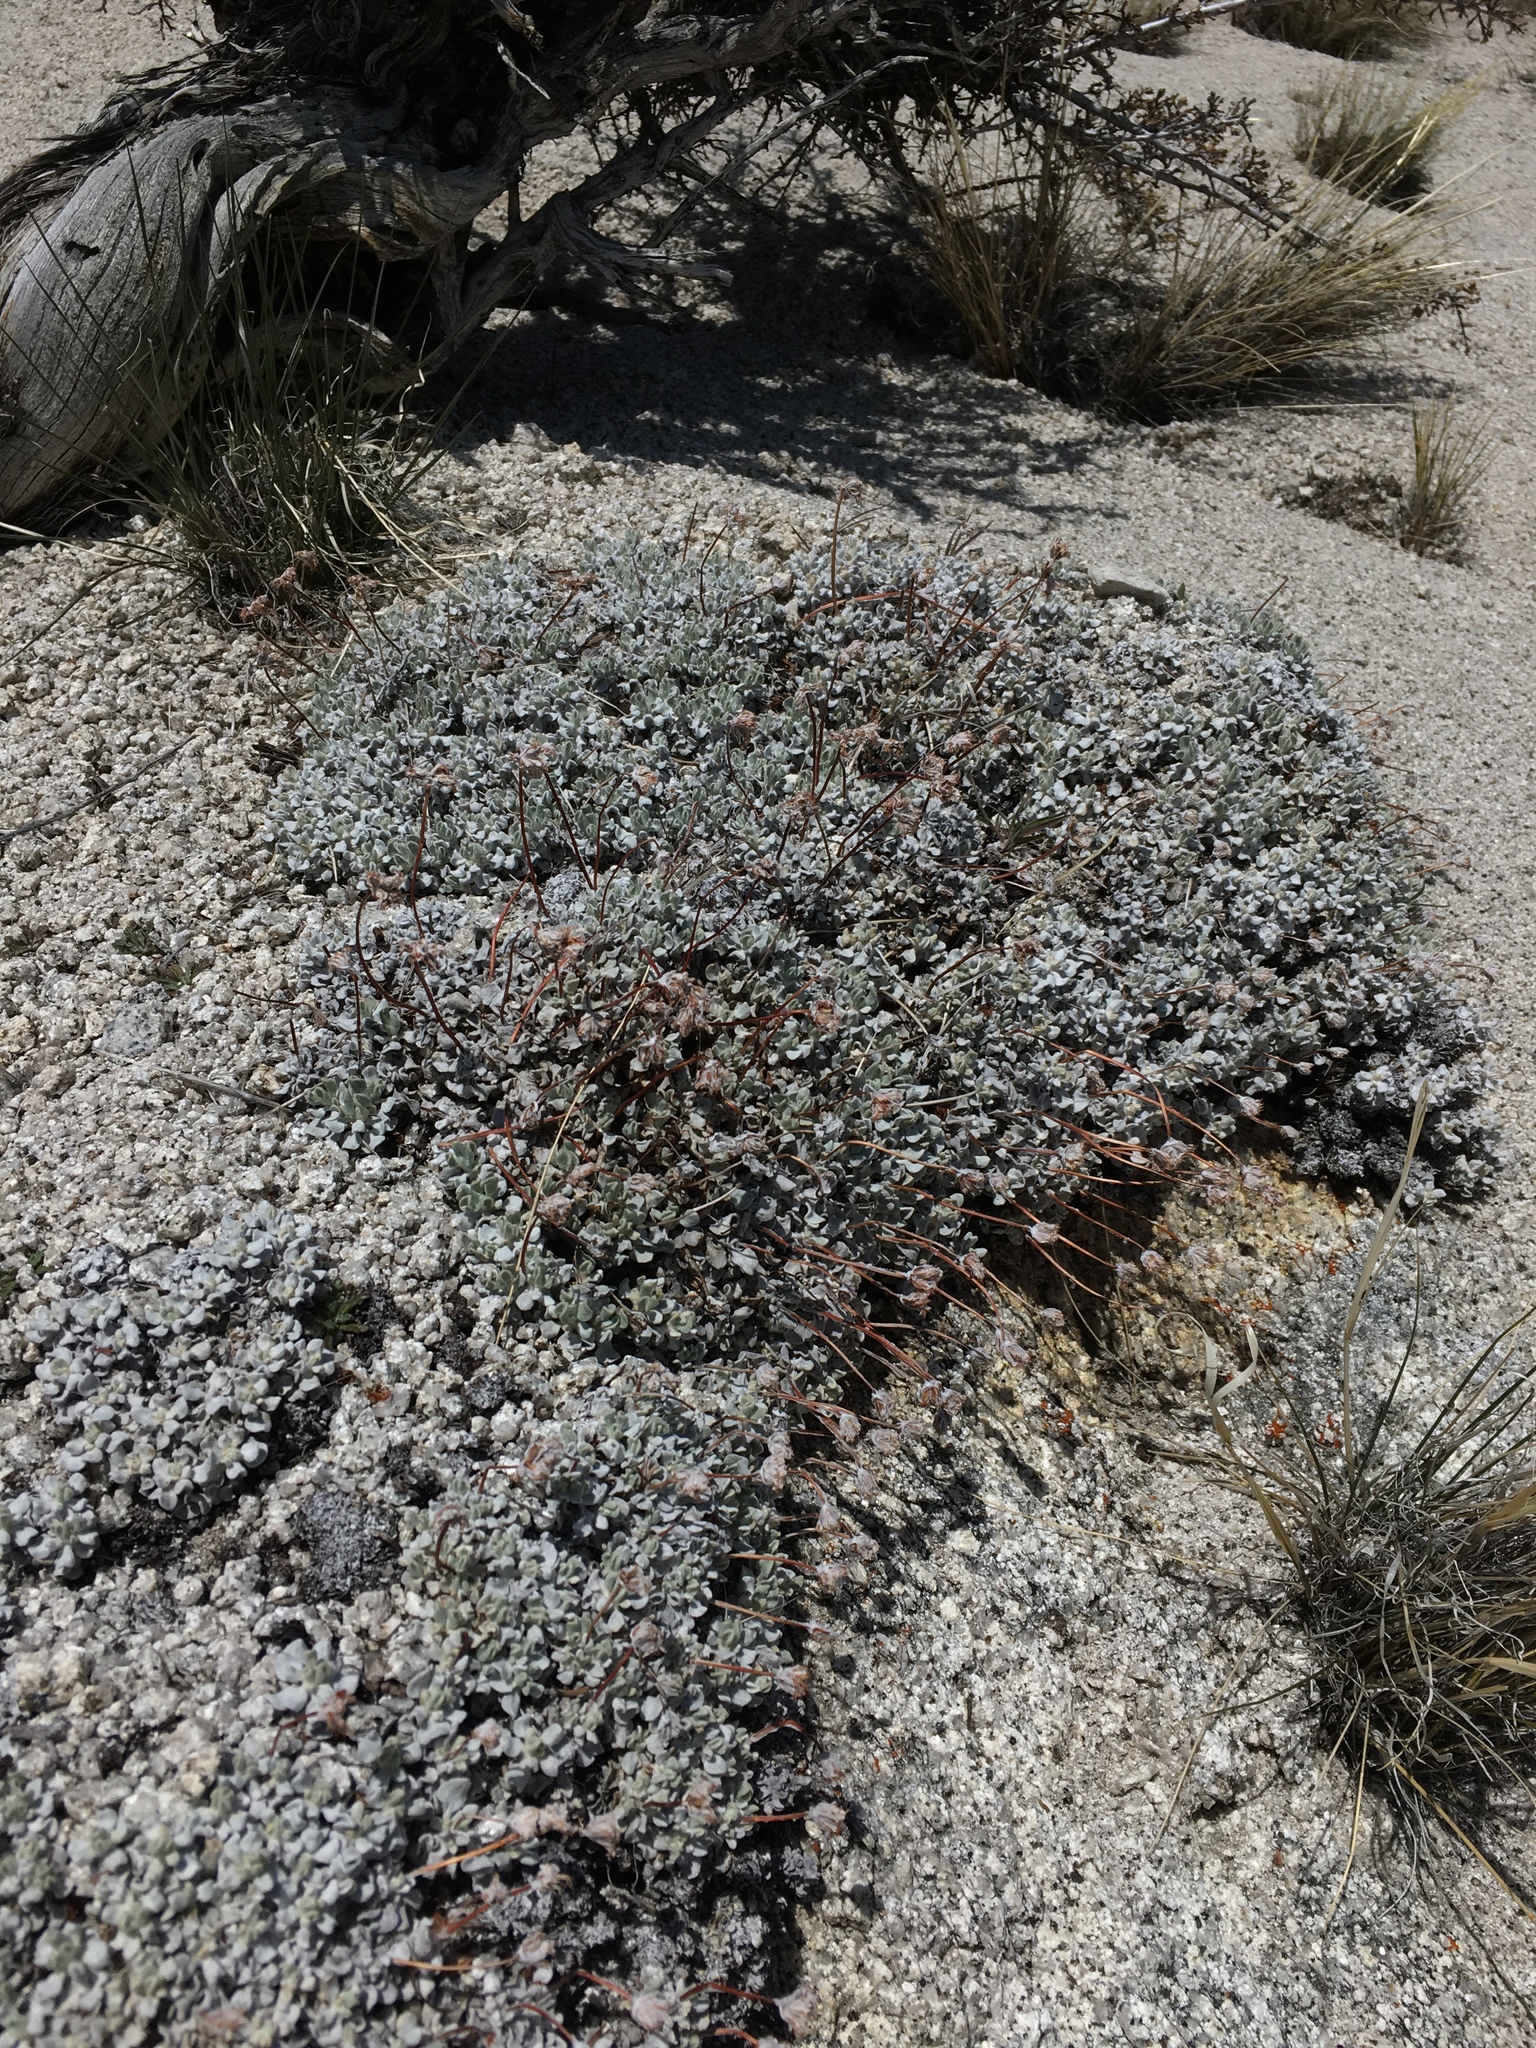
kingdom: Plantae
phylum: Tracheophyta
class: Magnoliopsida
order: Caryophyllales
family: Polygonaceae
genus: Eriogonum
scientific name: Eriogonum ovalifolium
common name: Cushion buckwheat
